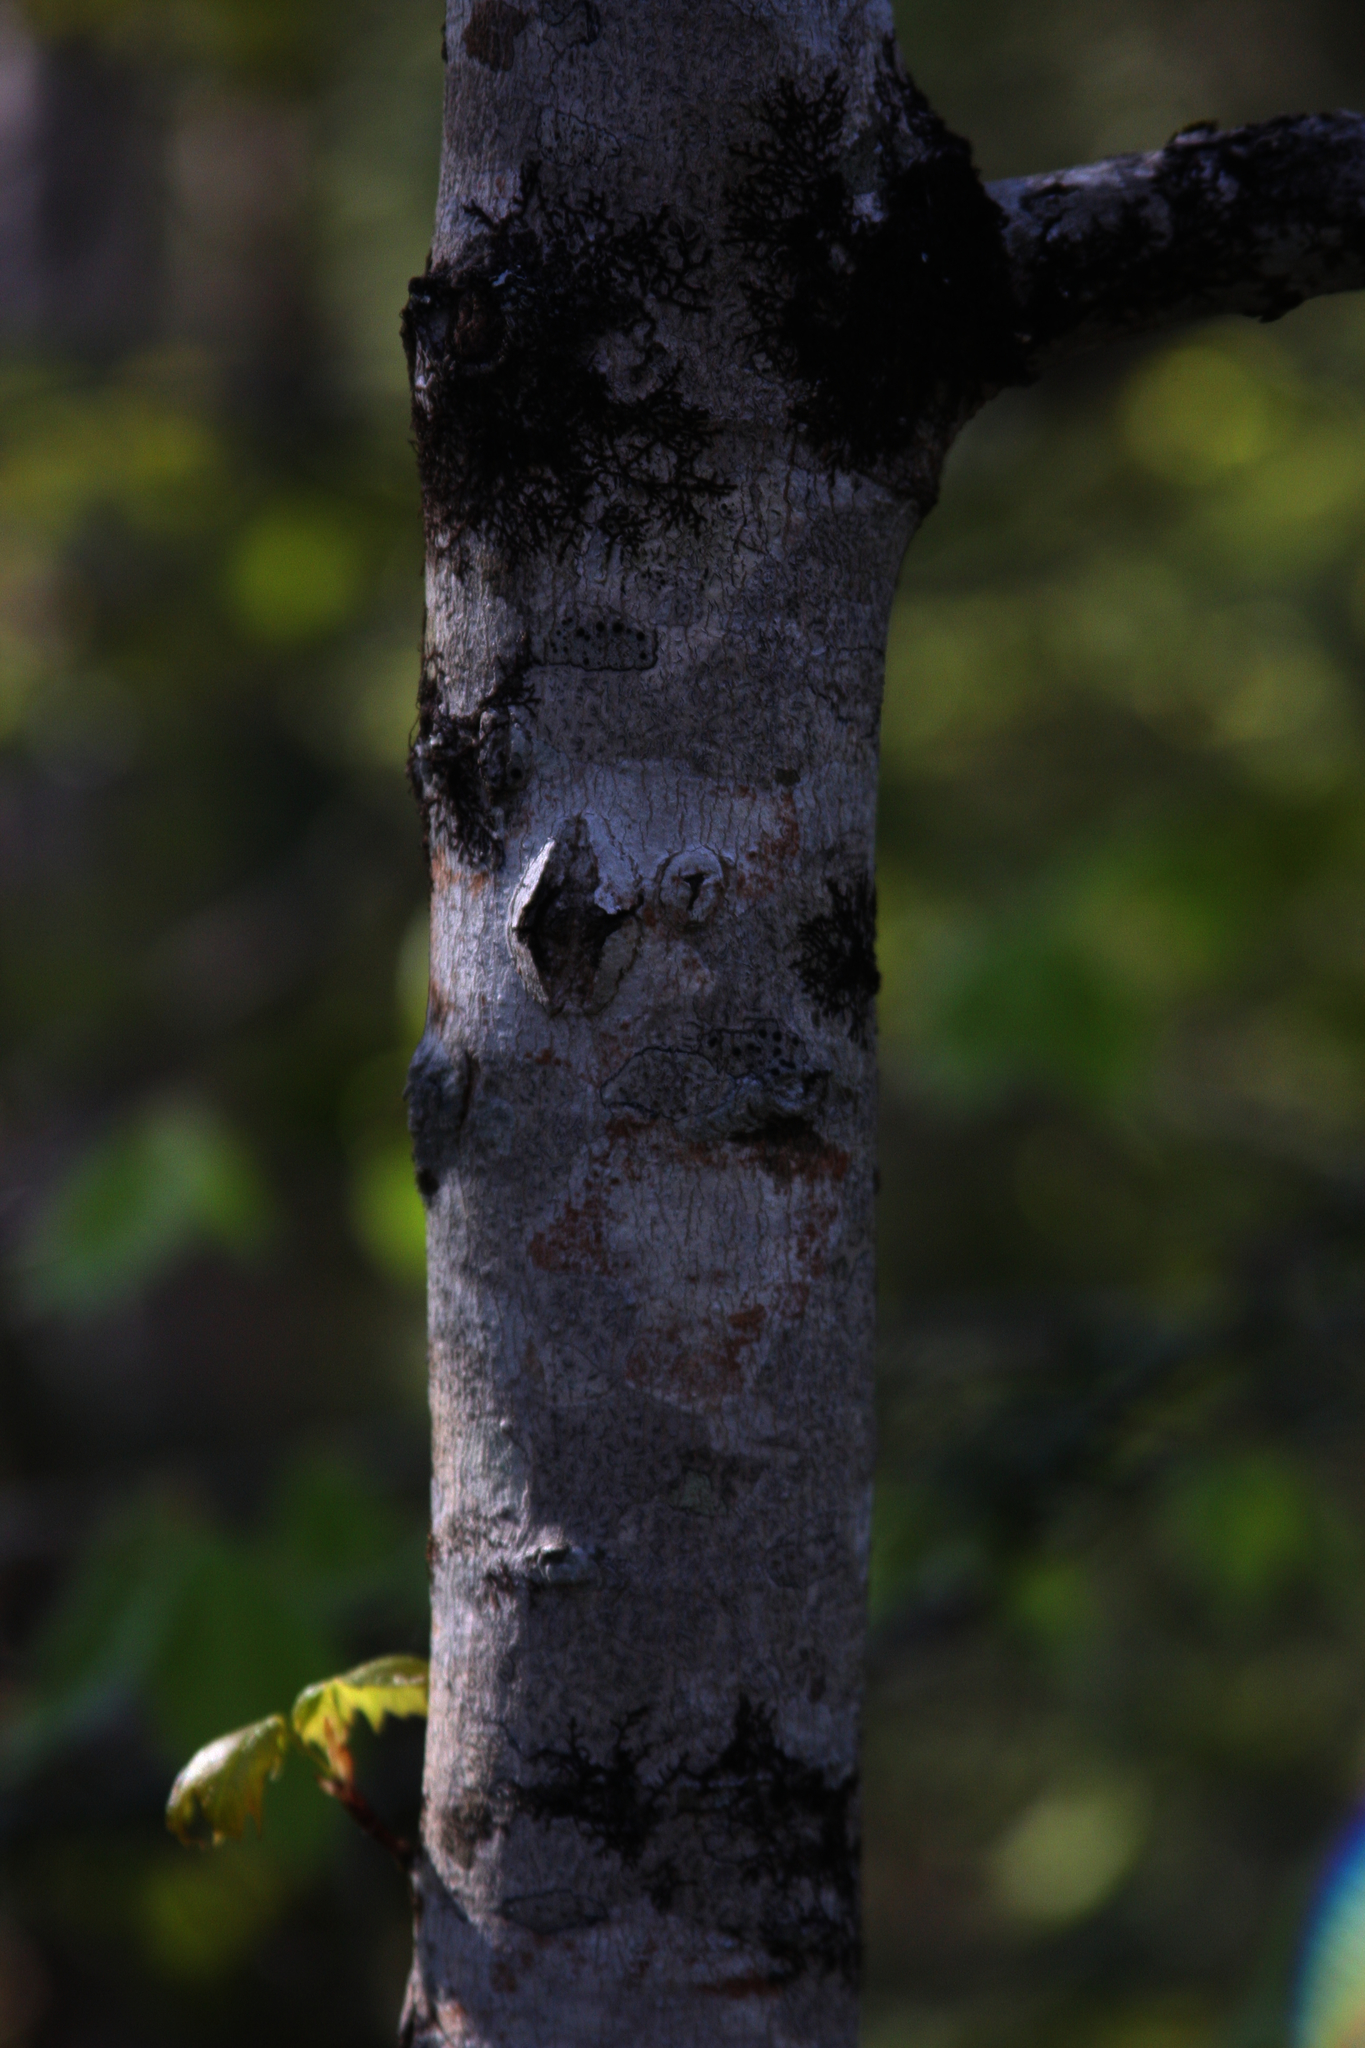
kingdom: Plantae
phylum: Marchantiophyta
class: Jungermanniopsida
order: Porellales
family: Frullaniaceae
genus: Frullania
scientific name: Frullania eboracensis
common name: New york scalewort
